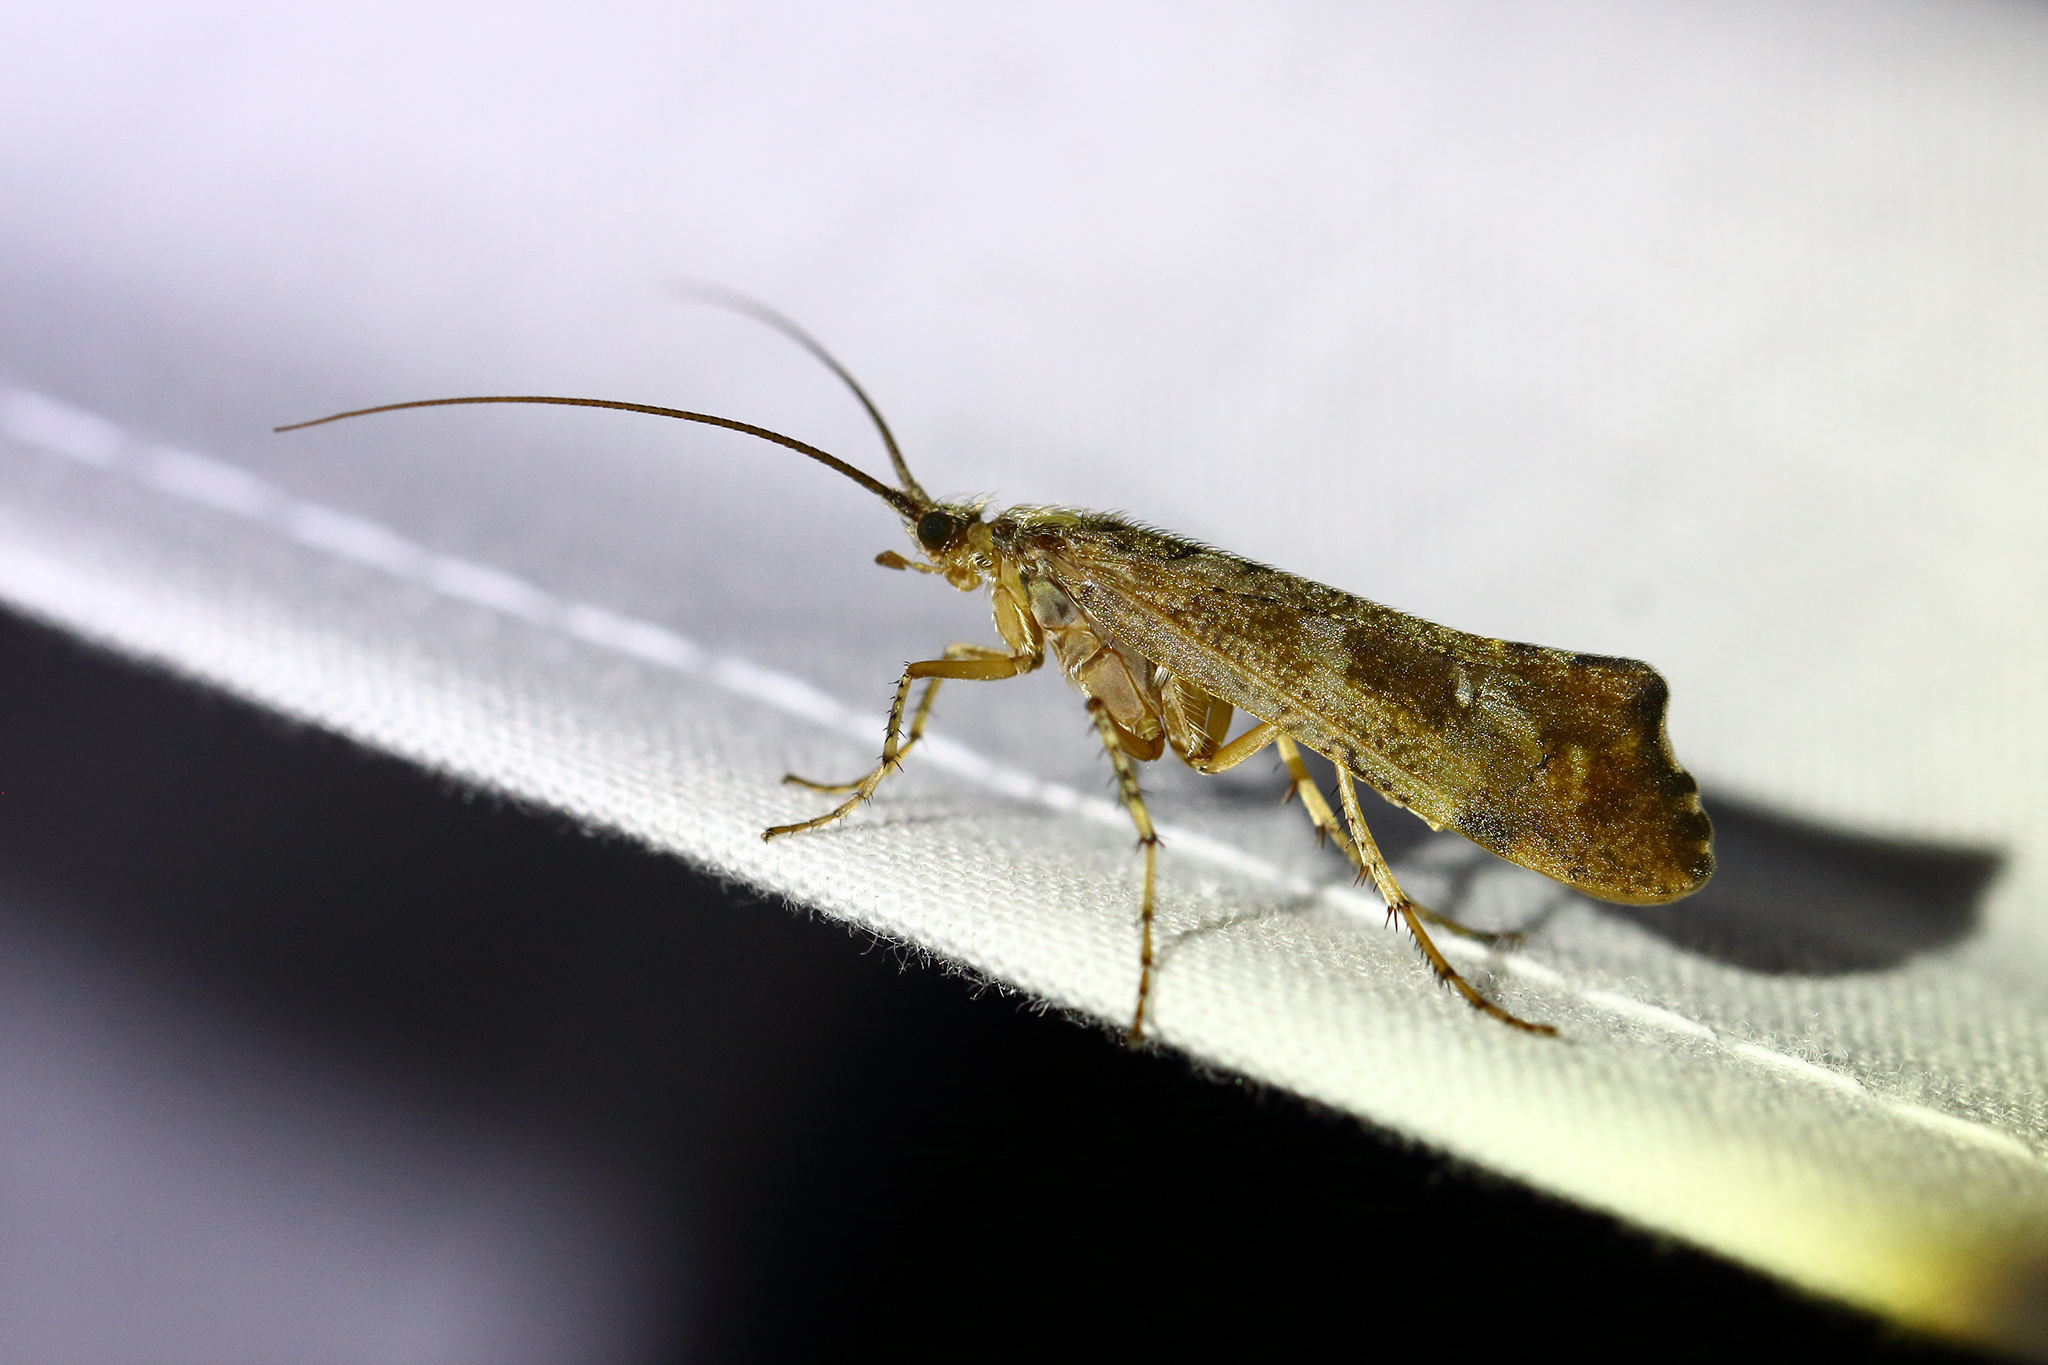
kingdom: Animalia
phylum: Arthropoda
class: Insecta
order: Trichoptera
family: Limnephilidae
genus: Glyphotaelius
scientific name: Glyphotaelius pellucidus
